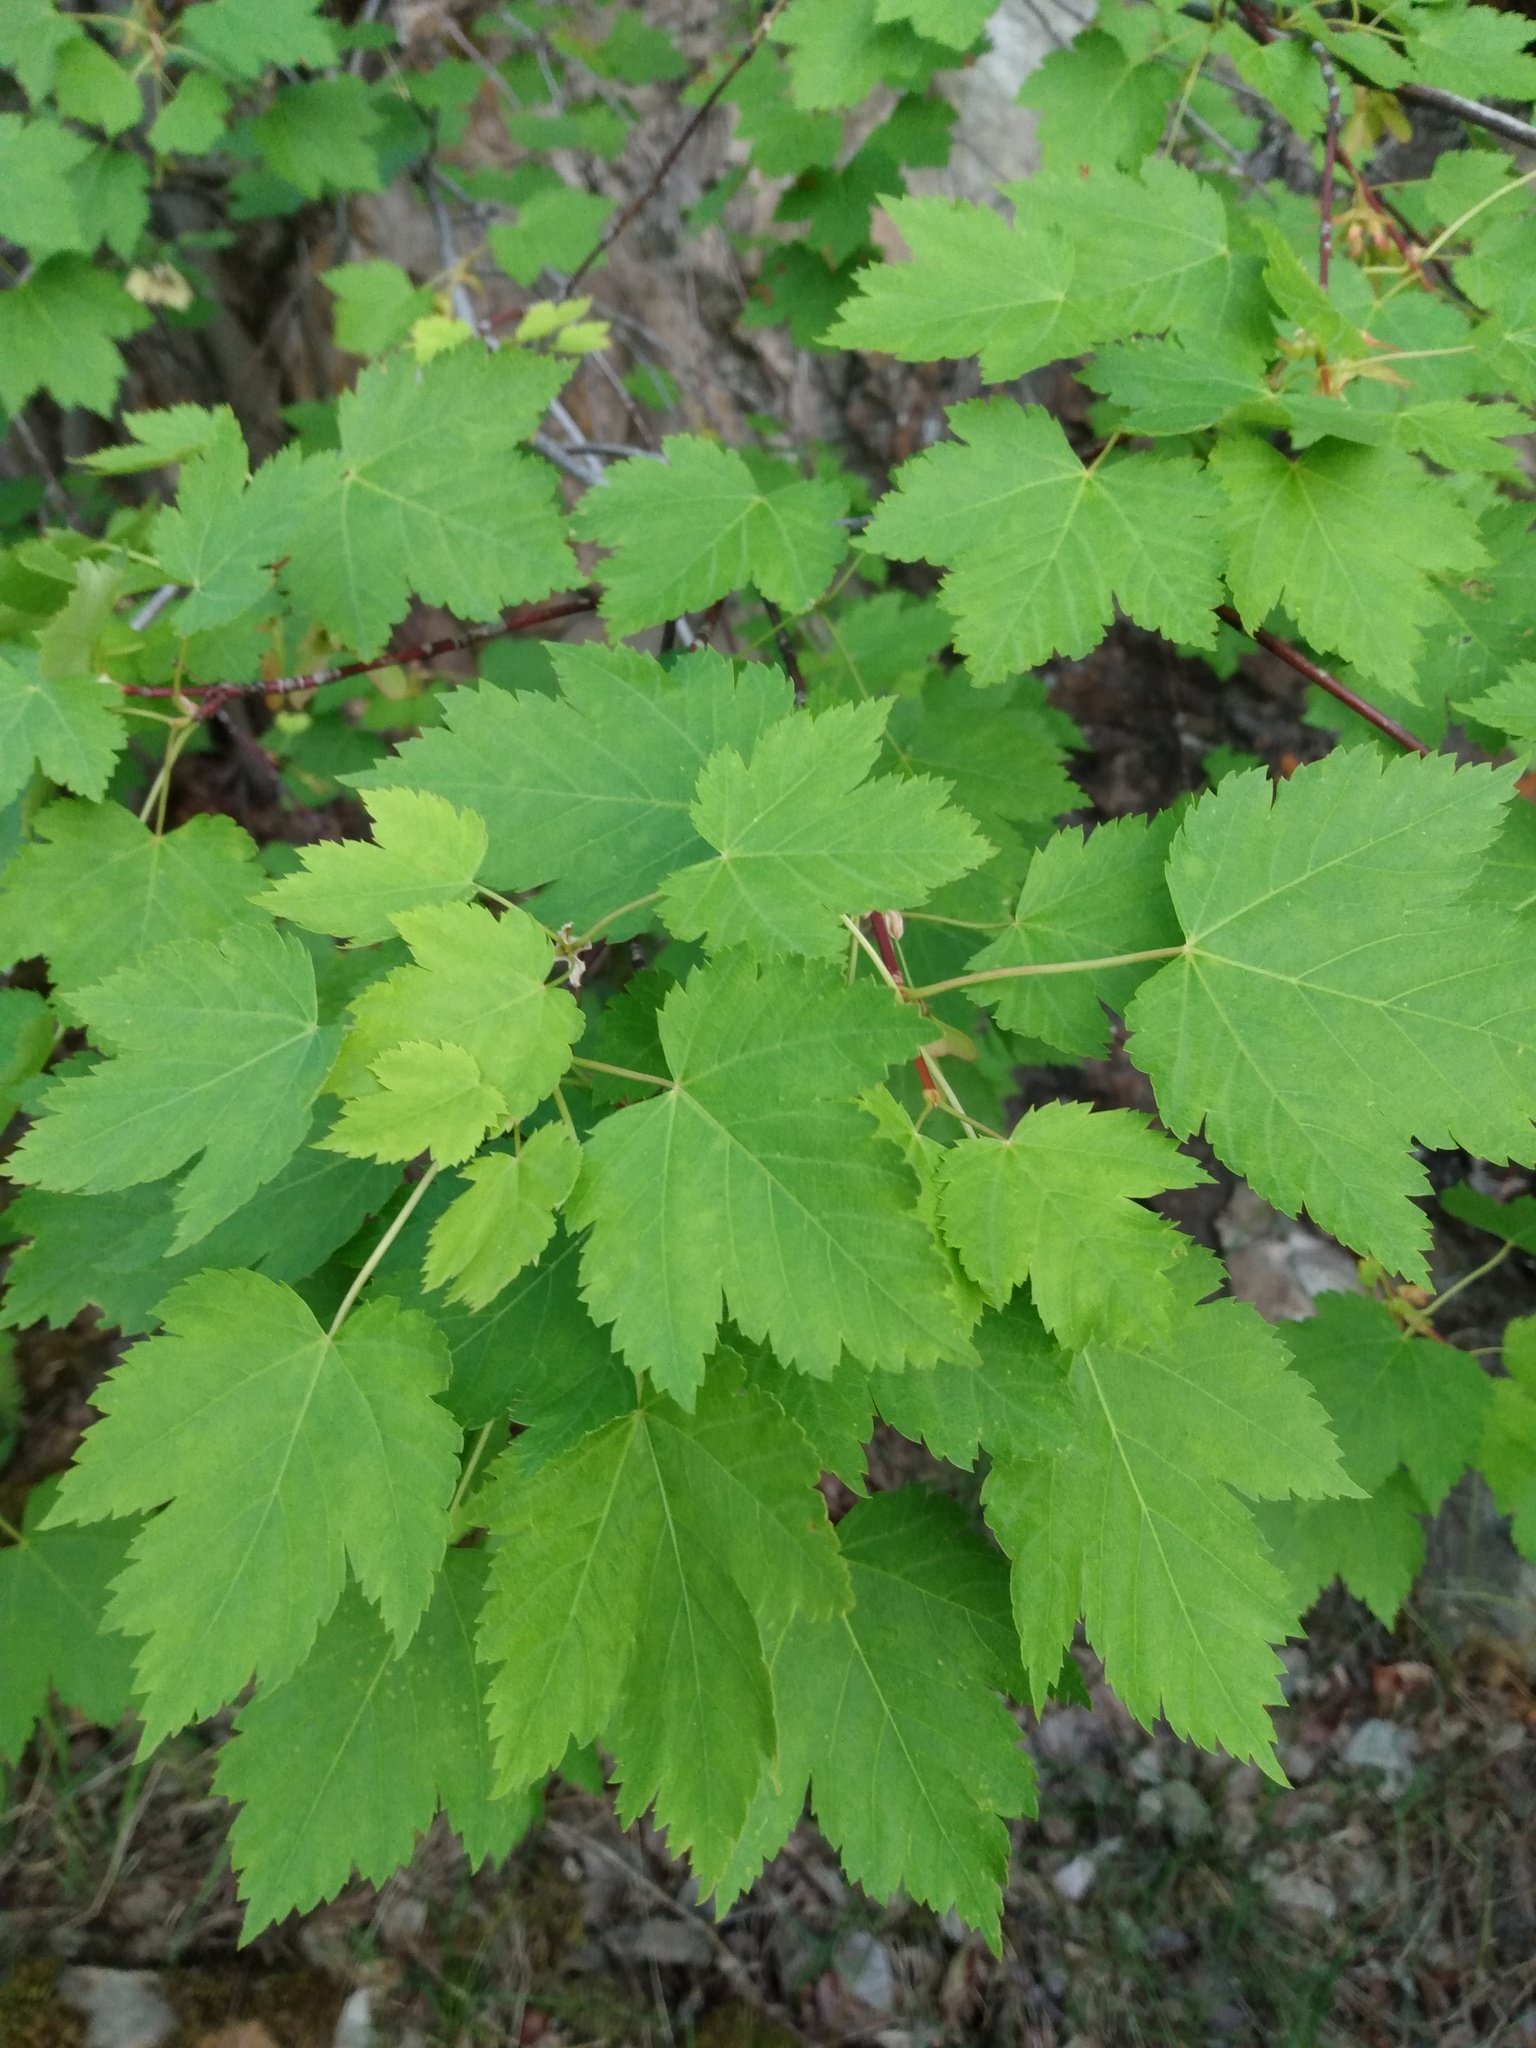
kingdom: Plantae
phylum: Tracheophyta
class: Magnoliopsida
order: Sapindales
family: Sapindaceae
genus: Acer
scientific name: Acer glabrum
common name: Rocky mountain maple
